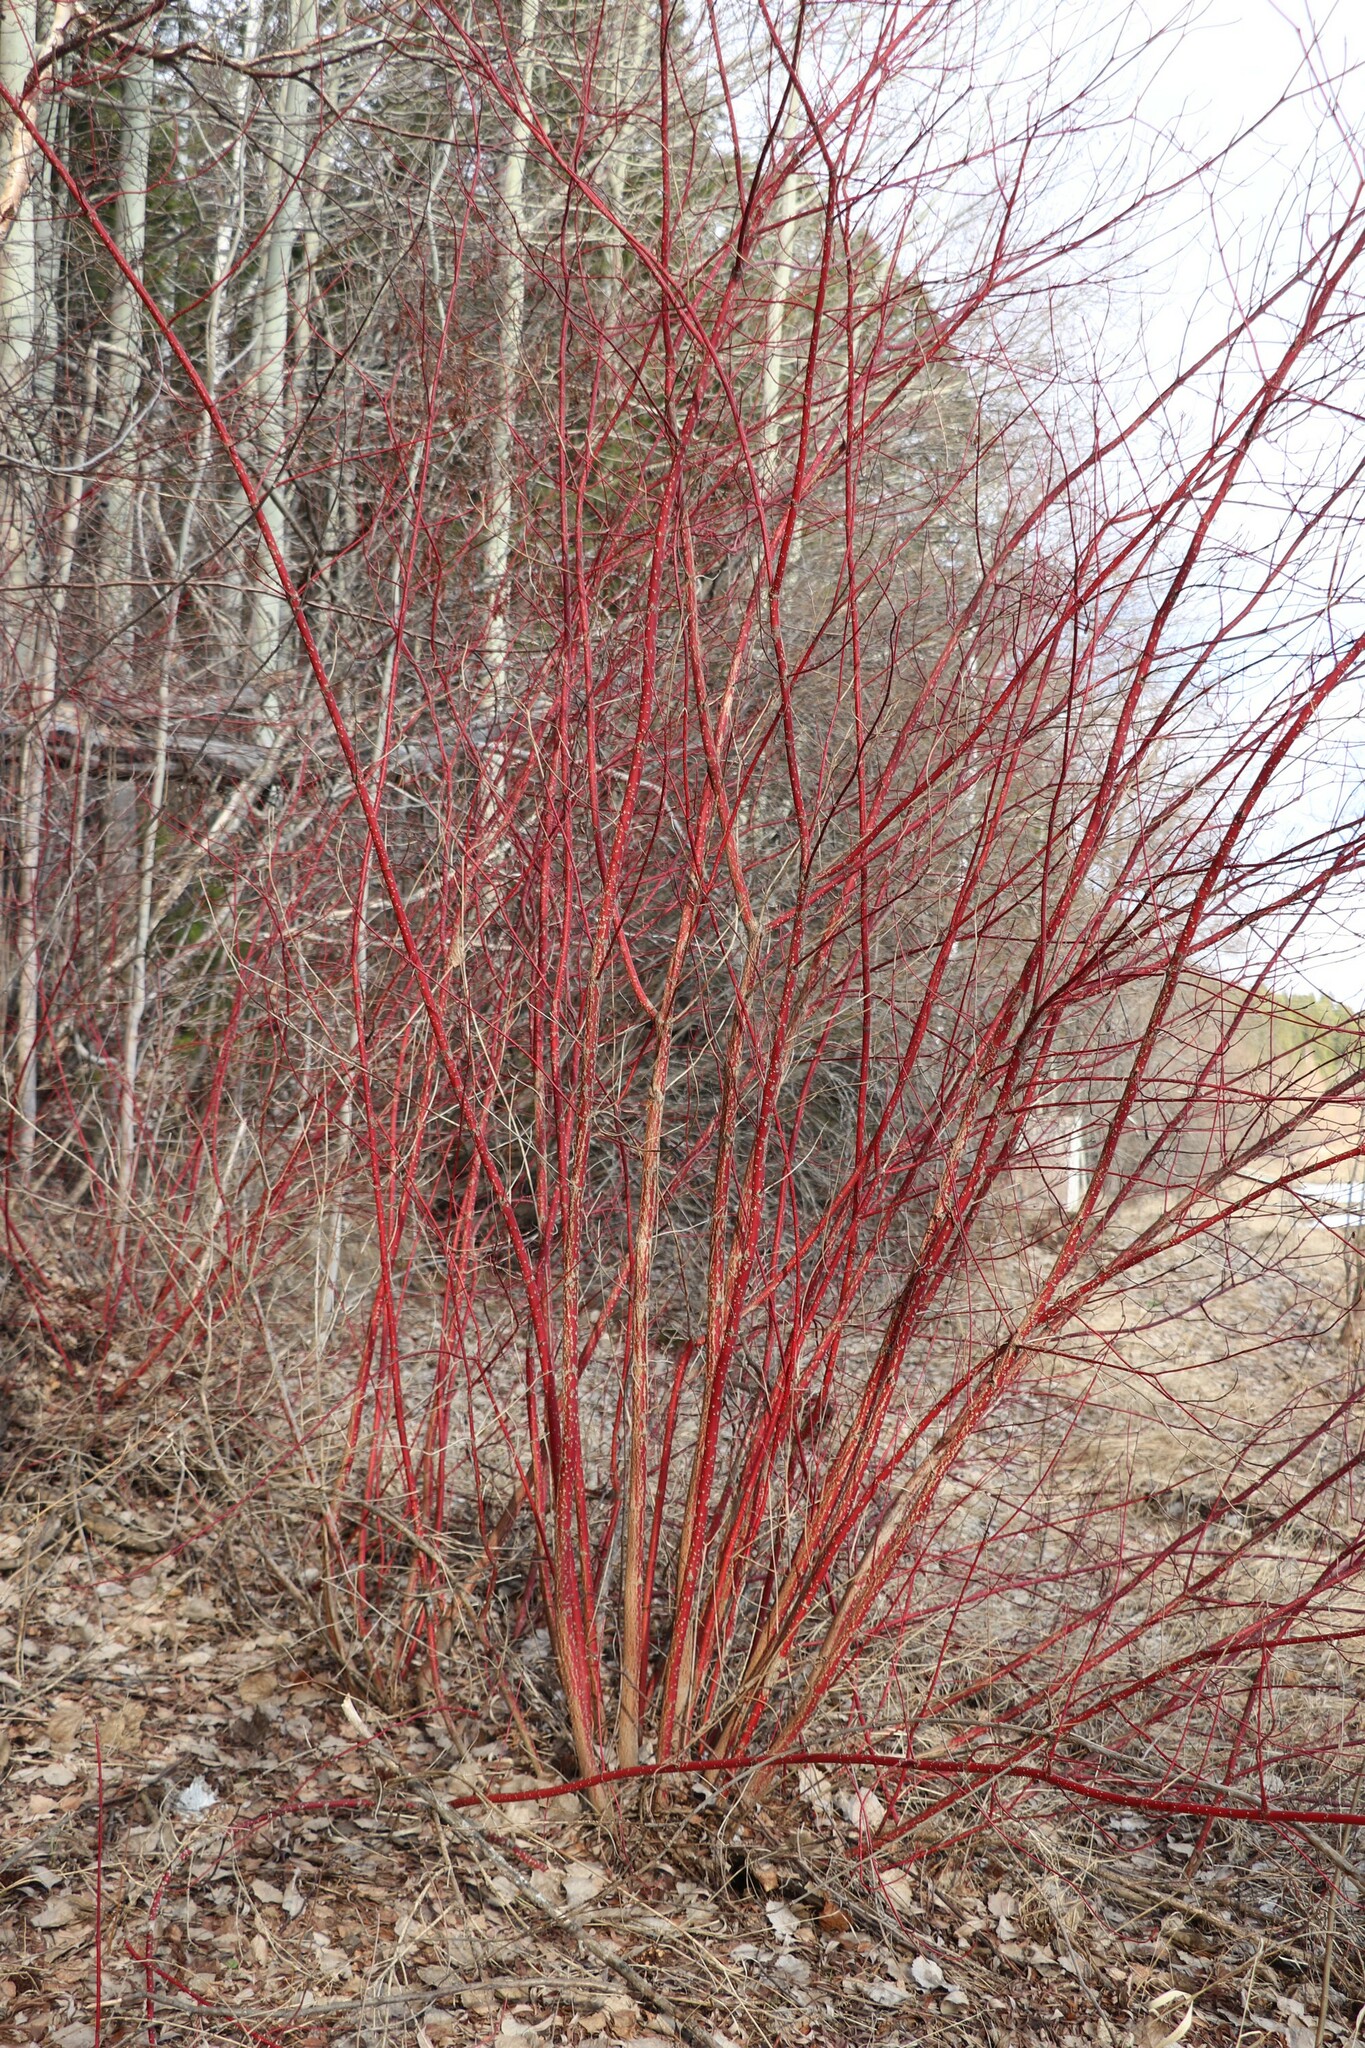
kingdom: Plantae
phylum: Tracheophyta
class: Magnoliopsida
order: Cornales
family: Cornaceae
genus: Cornus
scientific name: Cornus alba
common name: White dogwood
